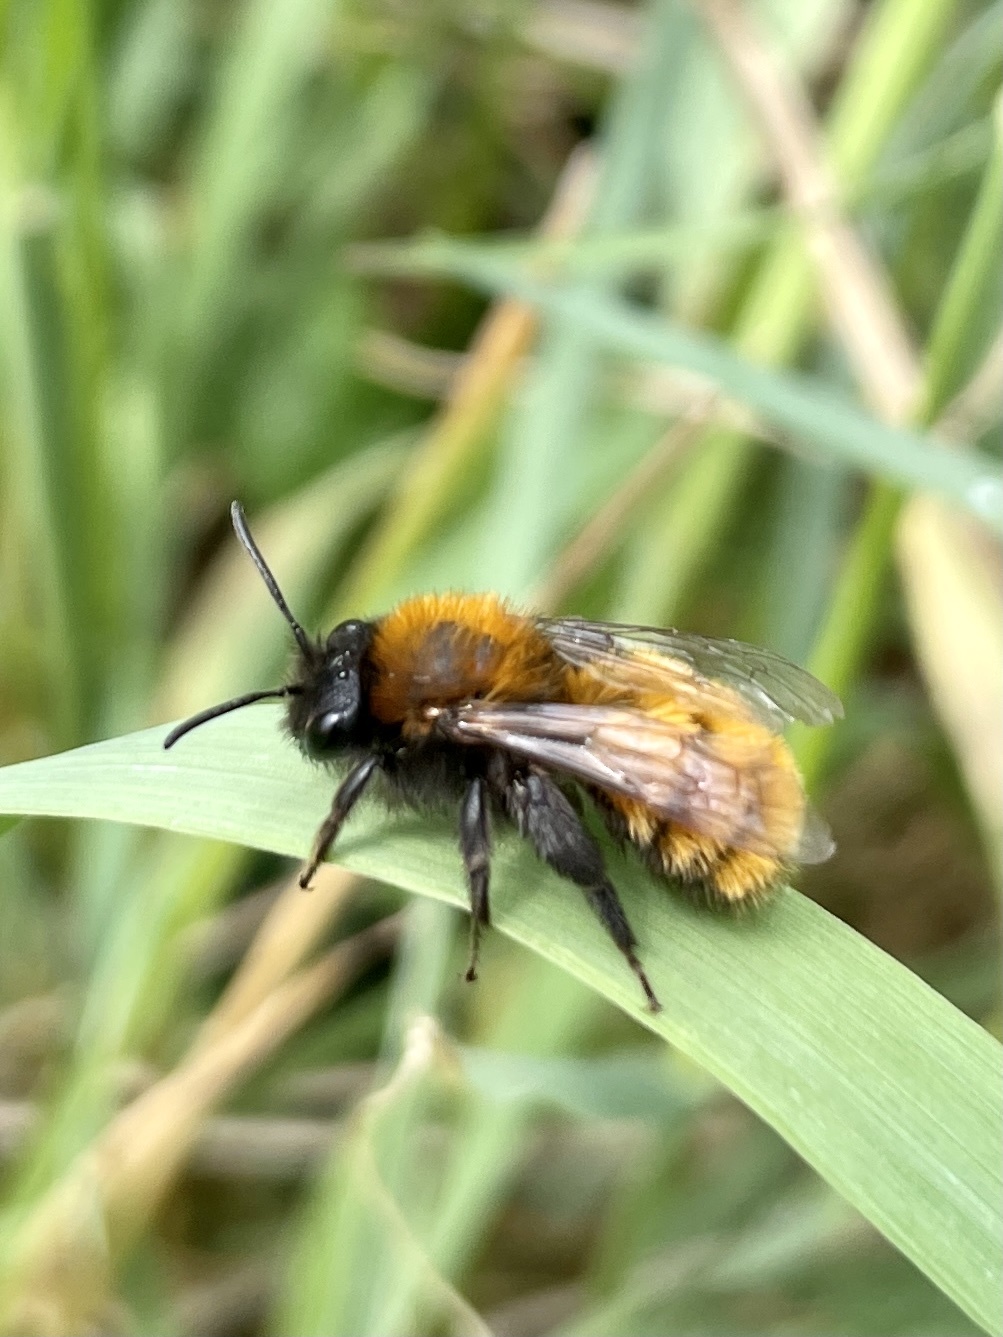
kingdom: Animalia
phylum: Arthropoda
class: Insecta
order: Hymenoptera
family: Andrenidae
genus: Andrena
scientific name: Andrena fulva
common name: Tawny mining bee
